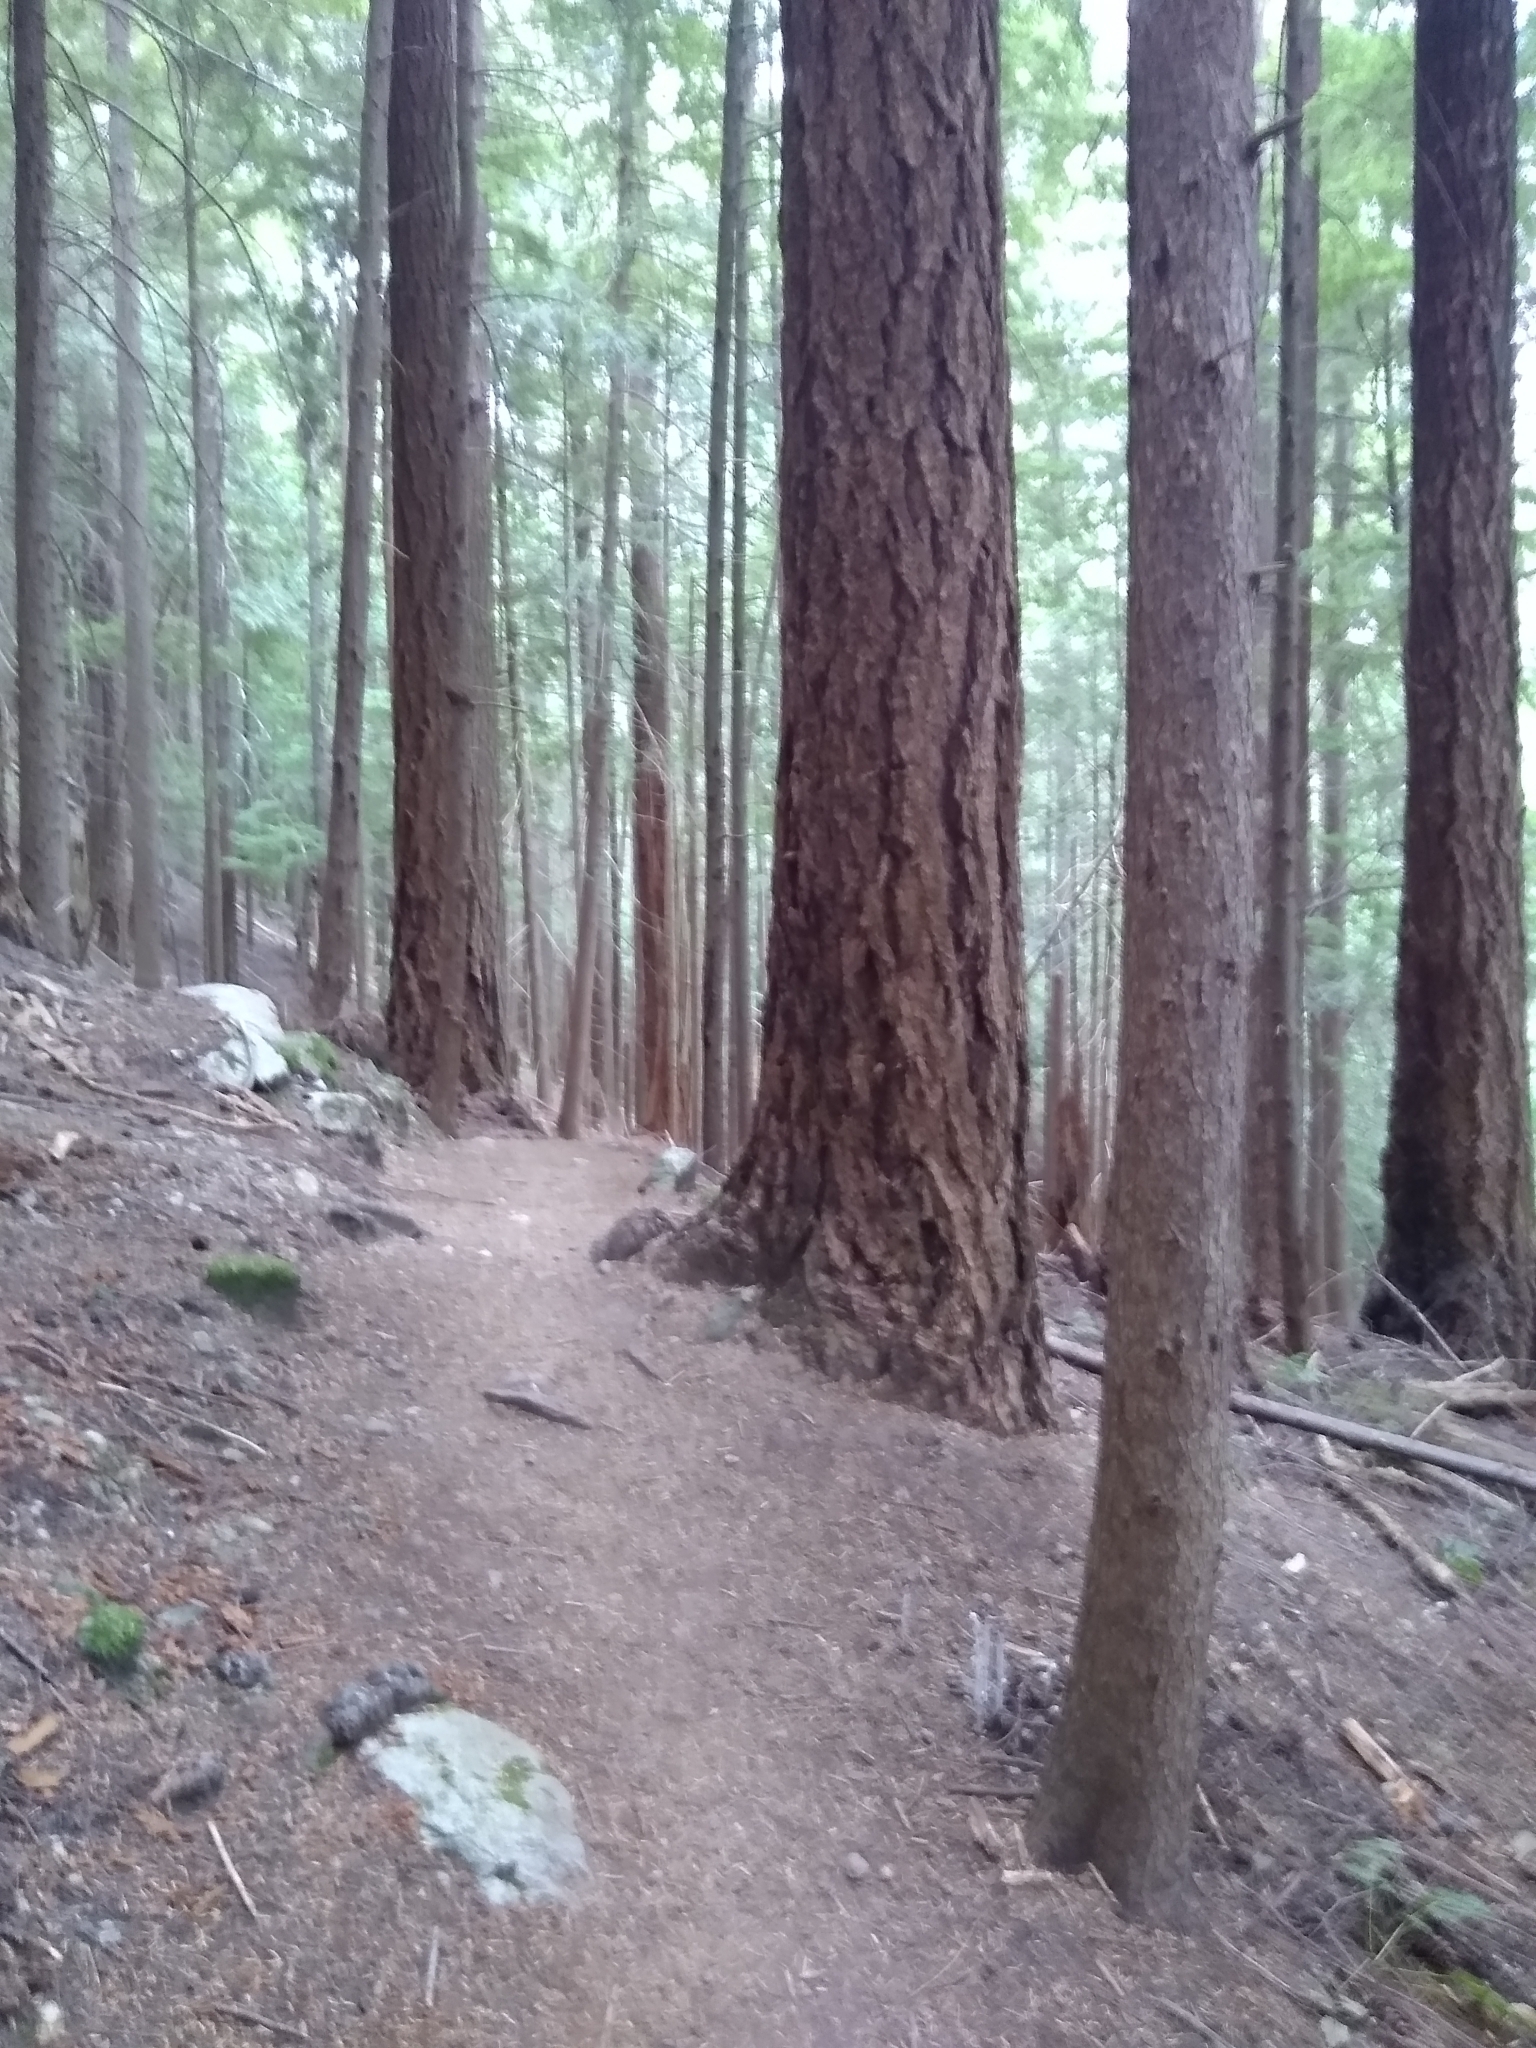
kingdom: Plantae
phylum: Tracheophyta
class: Magnoliopsida
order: Ericales
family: Ericaceae
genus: Monotropa
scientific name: Monotropa uniflora
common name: Convulsion root
